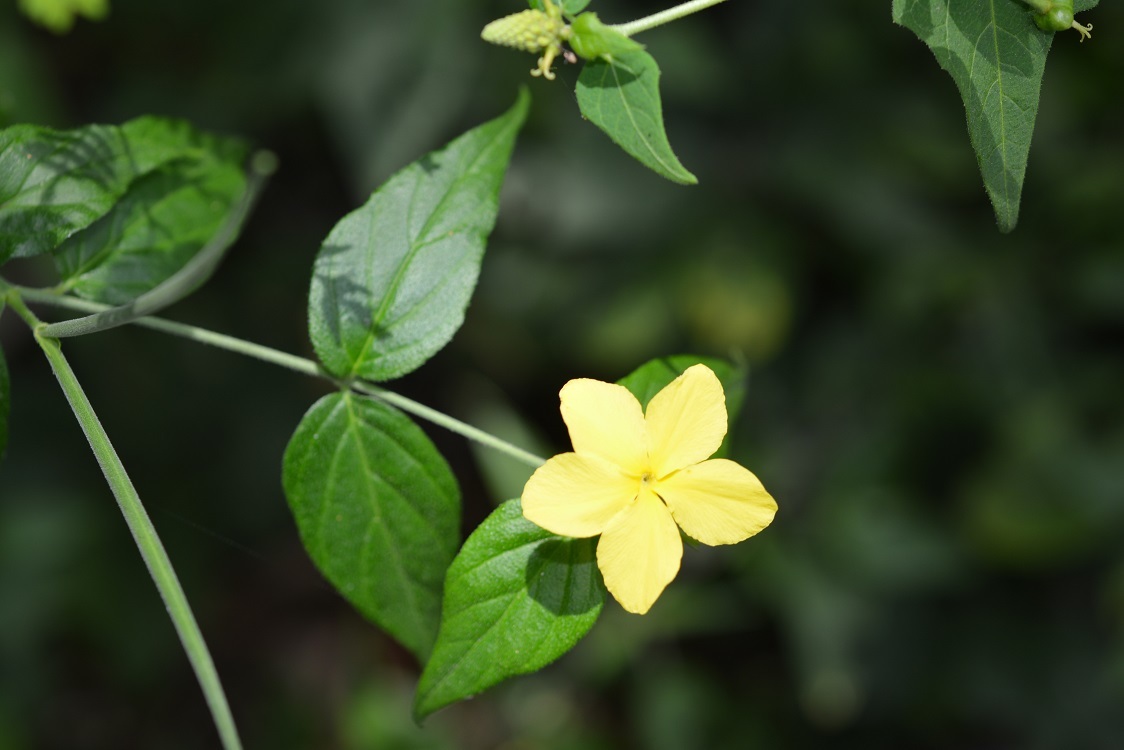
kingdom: Plantae
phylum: Tracheophyta
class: Magnoliopsida
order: Gentianales
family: Apocynaceae
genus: Haplophyton
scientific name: Haplophyton cimicidum
